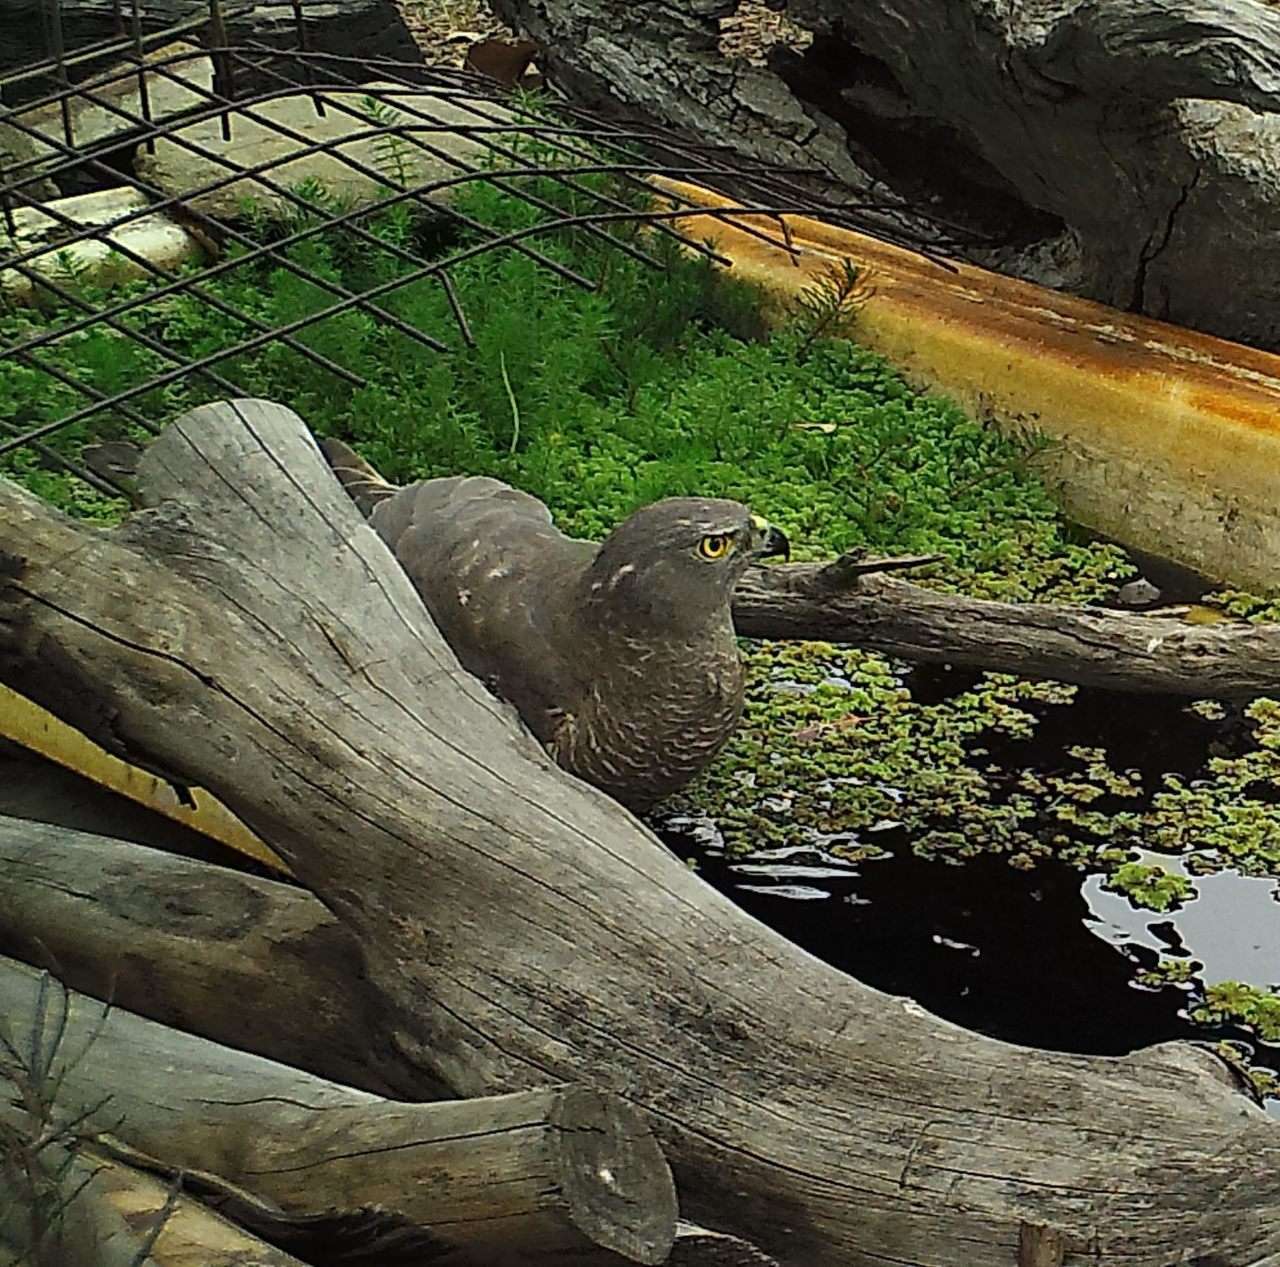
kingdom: Animalia
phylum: Chordata
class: Aves
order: Accipitriformes
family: Accipitridae
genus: Accipiter
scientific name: Accipiter fasciatus
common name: Brown goshawk
